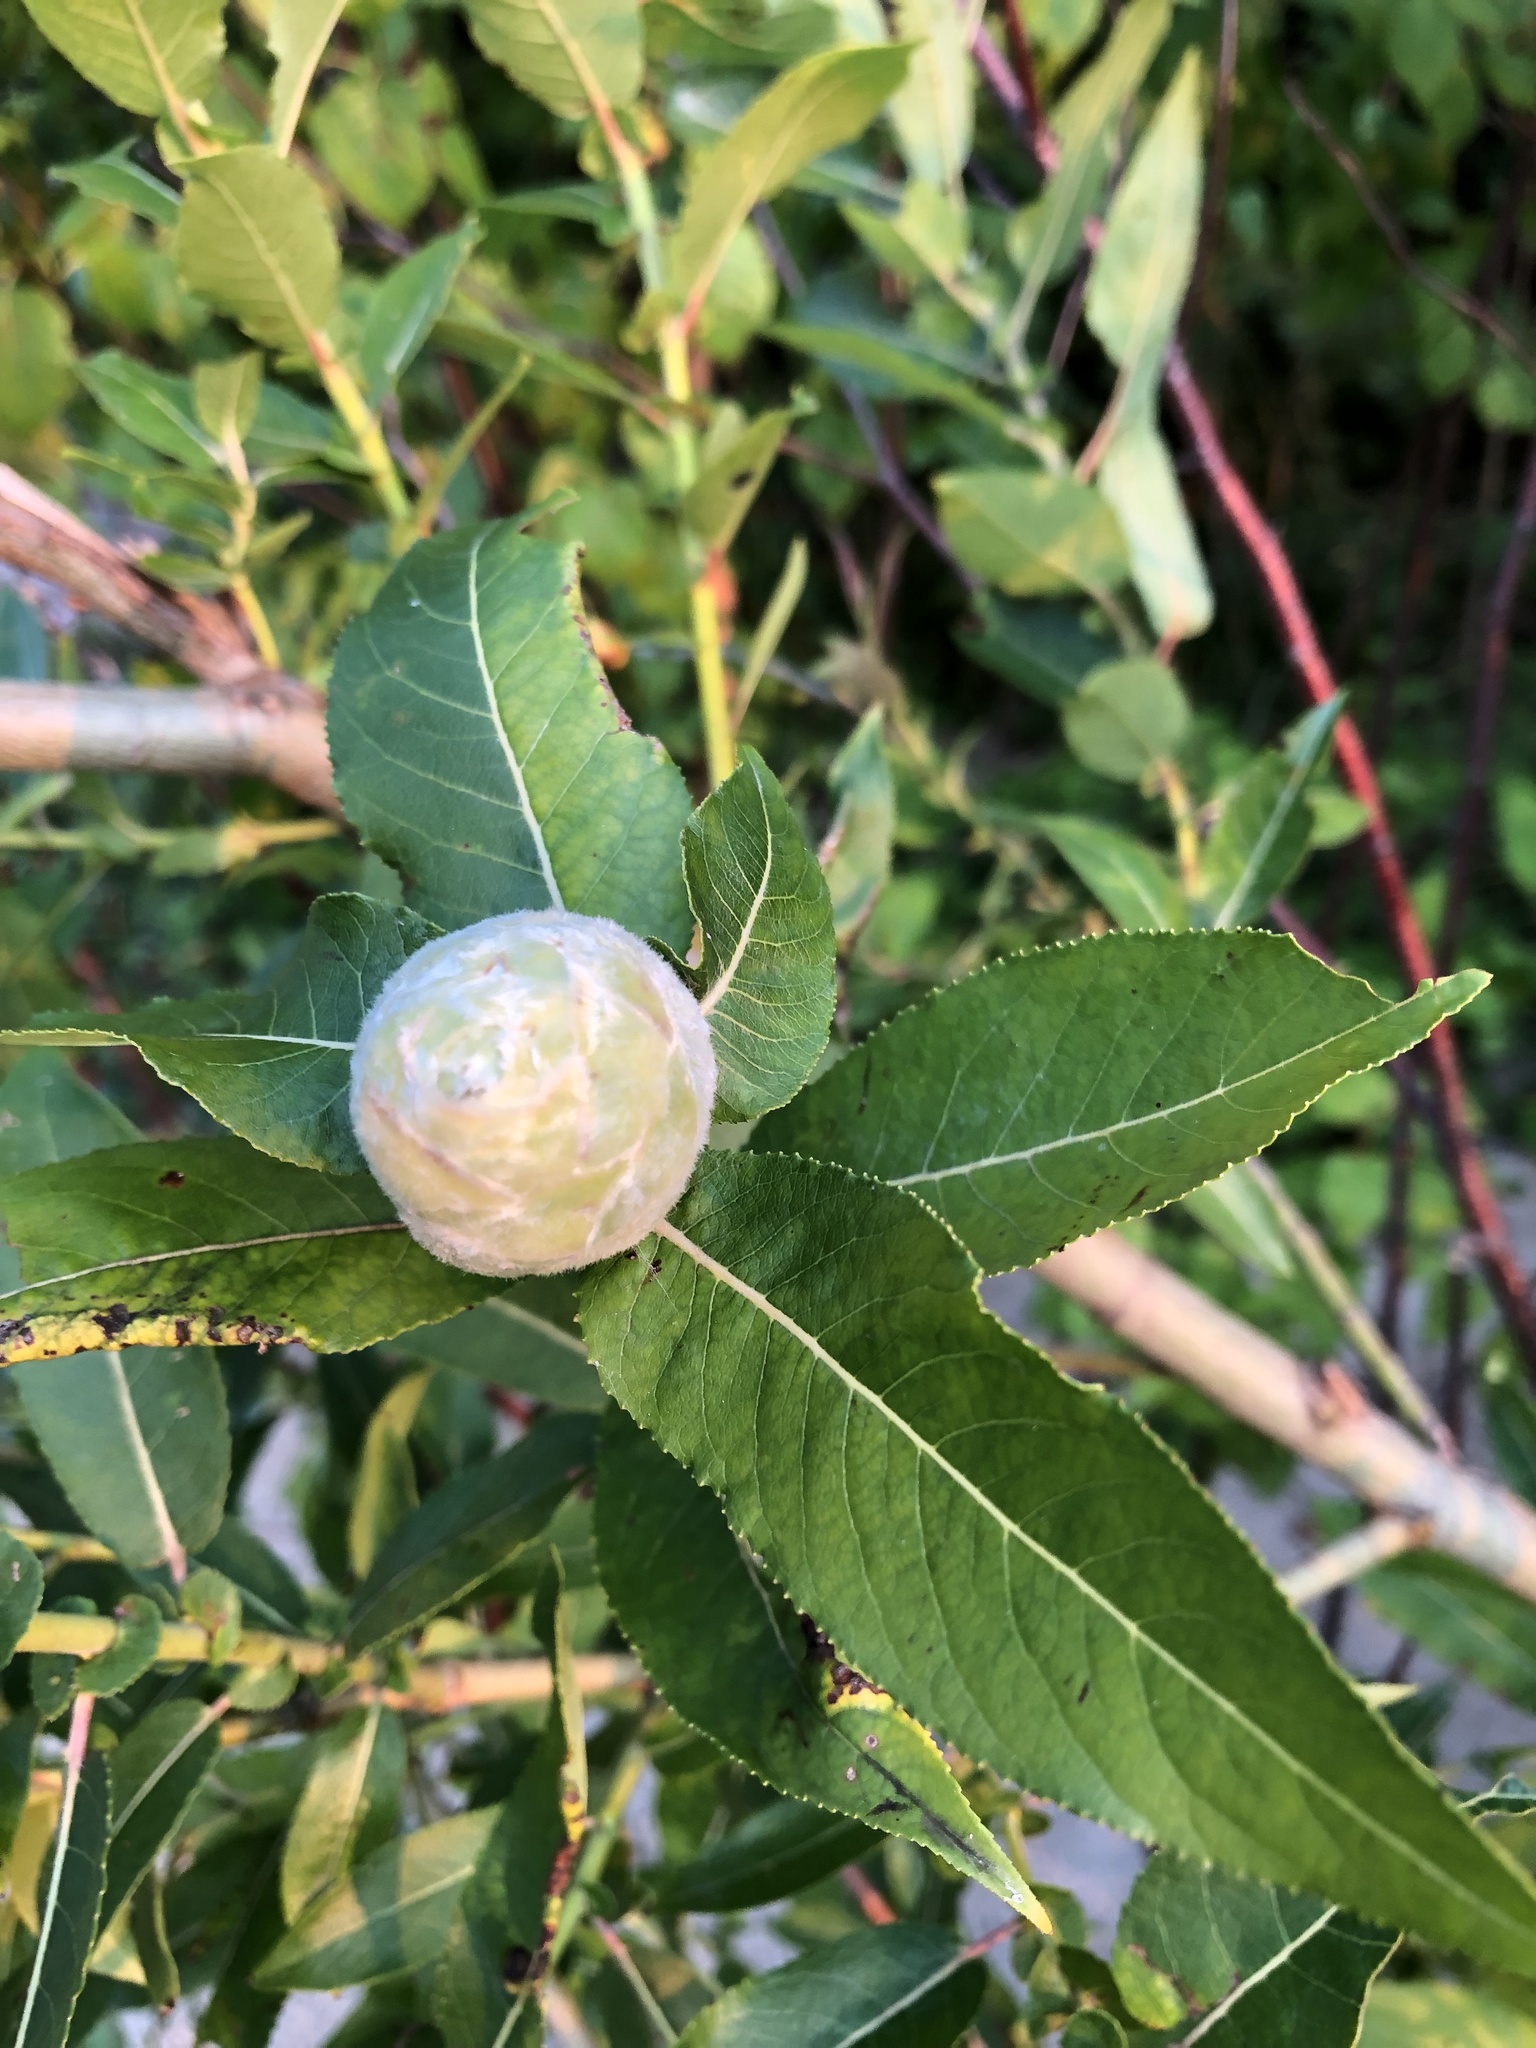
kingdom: Animalia
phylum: Arthropoda
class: Insecta
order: Diptera
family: Cecidomyiidae
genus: Rabdophaga
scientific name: Rabdophaga strobiloides
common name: Willow pinecone gall midge
